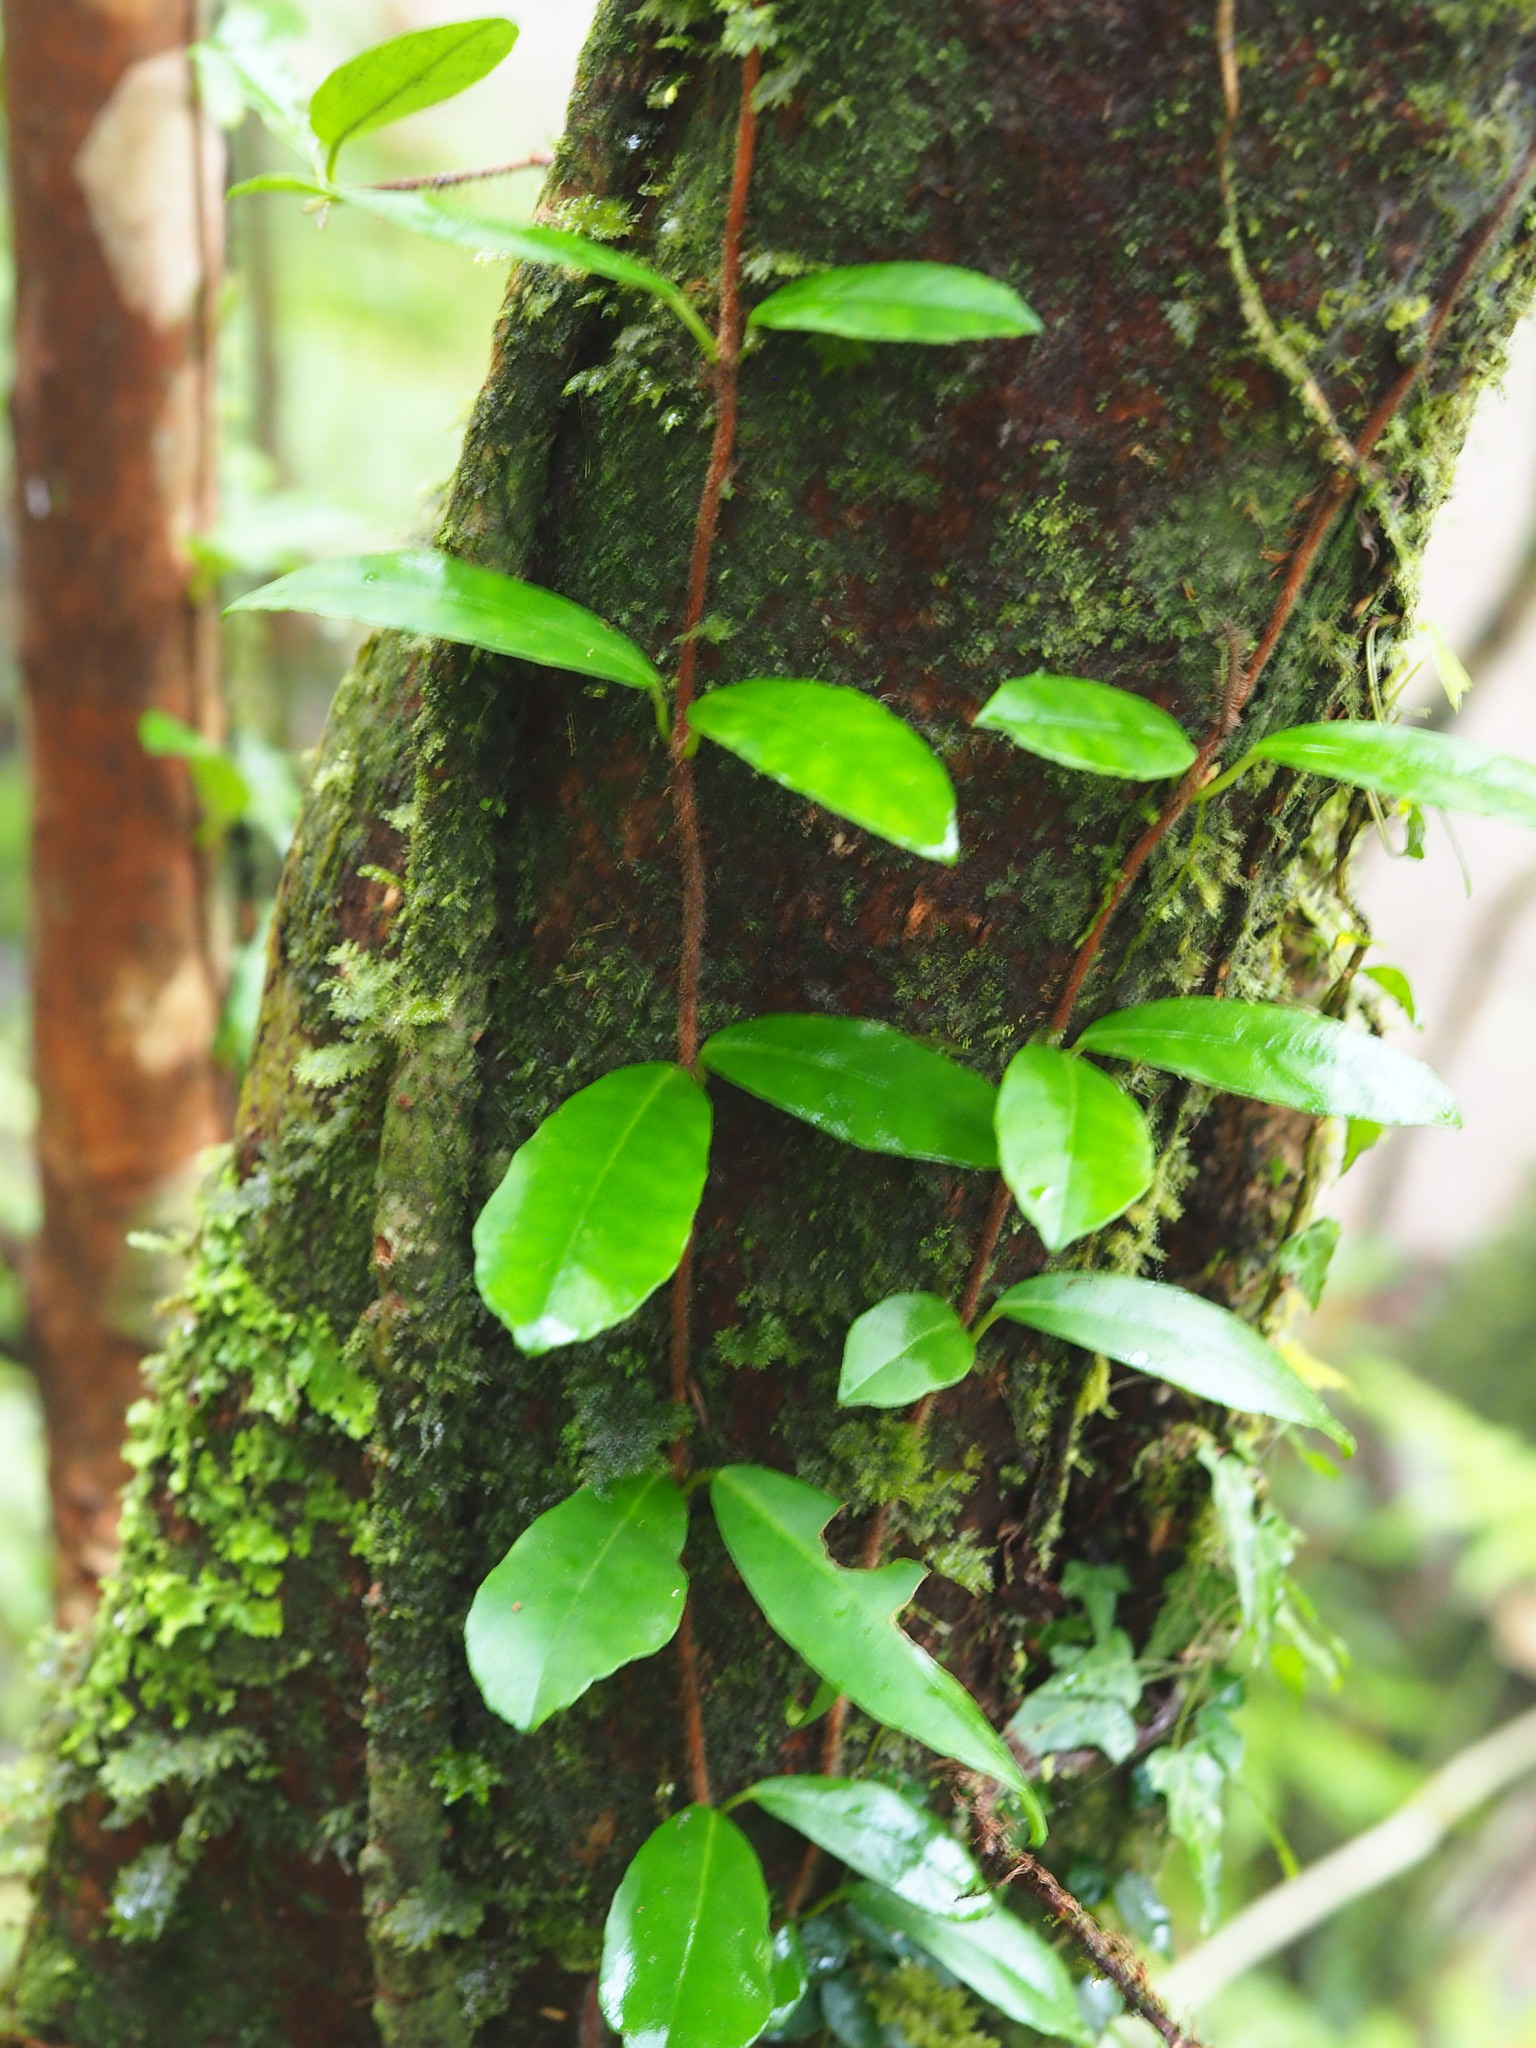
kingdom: Plantae
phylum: Tracheophyta
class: Magnoliopsida
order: Cornales
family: Hydrangeaceae
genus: Hydrangea
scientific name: Hydrangea viburnoides
